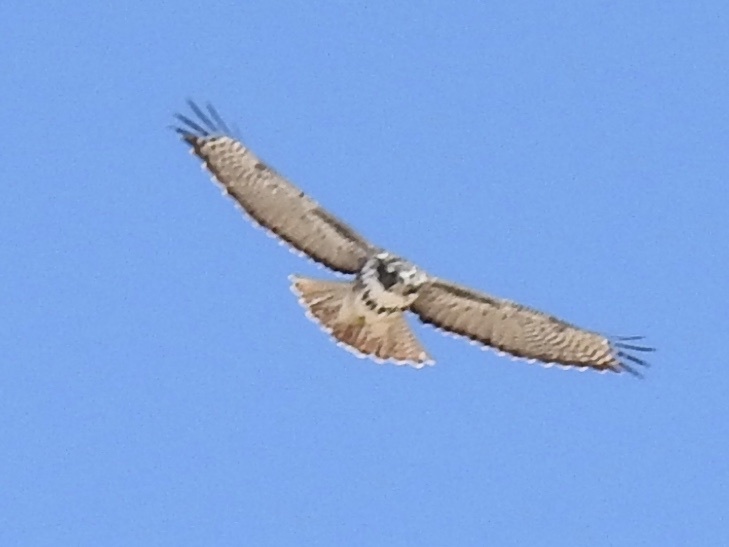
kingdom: Animalia
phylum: Chordata
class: Aves
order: Accipitriformes
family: Accipitridae
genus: Buteo
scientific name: Buteo jamaicensis
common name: Red-tailed hawk
